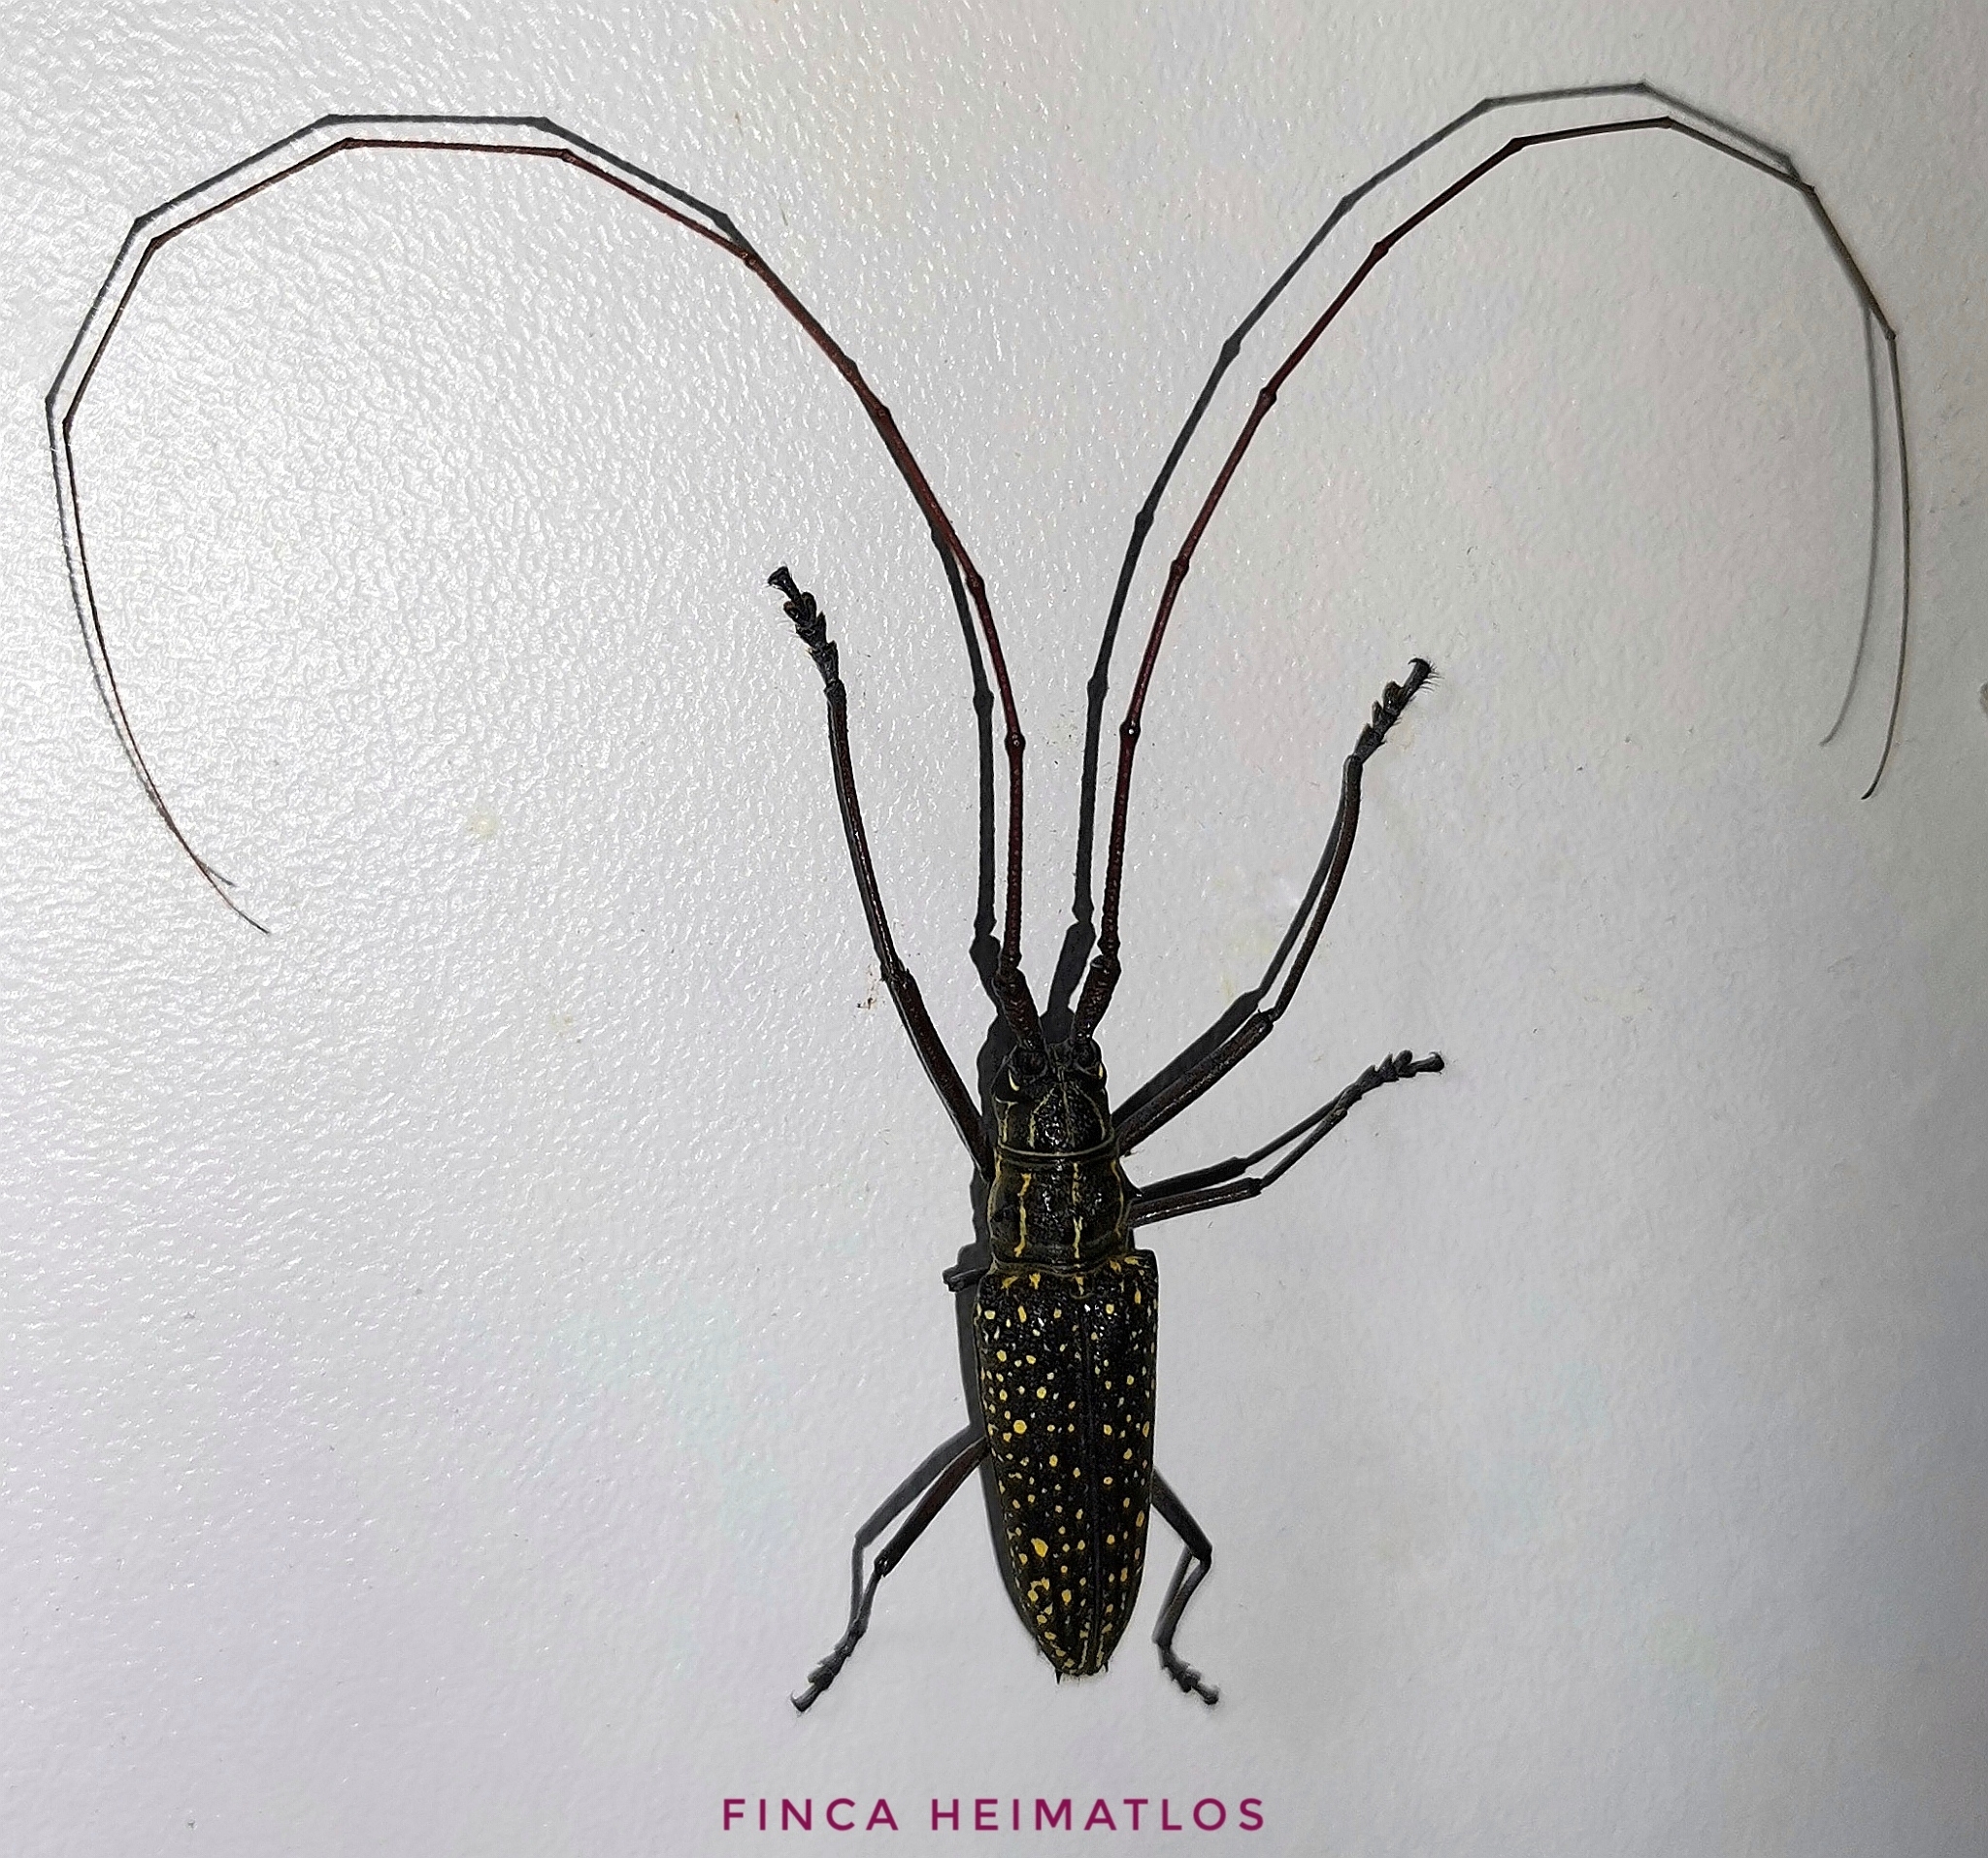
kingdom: Animalia
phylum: Arthropoda
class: Insecta
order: Coleoptera
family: Cerambycidae
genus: Taeniotes
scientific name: Taeniotes pulverulentus
